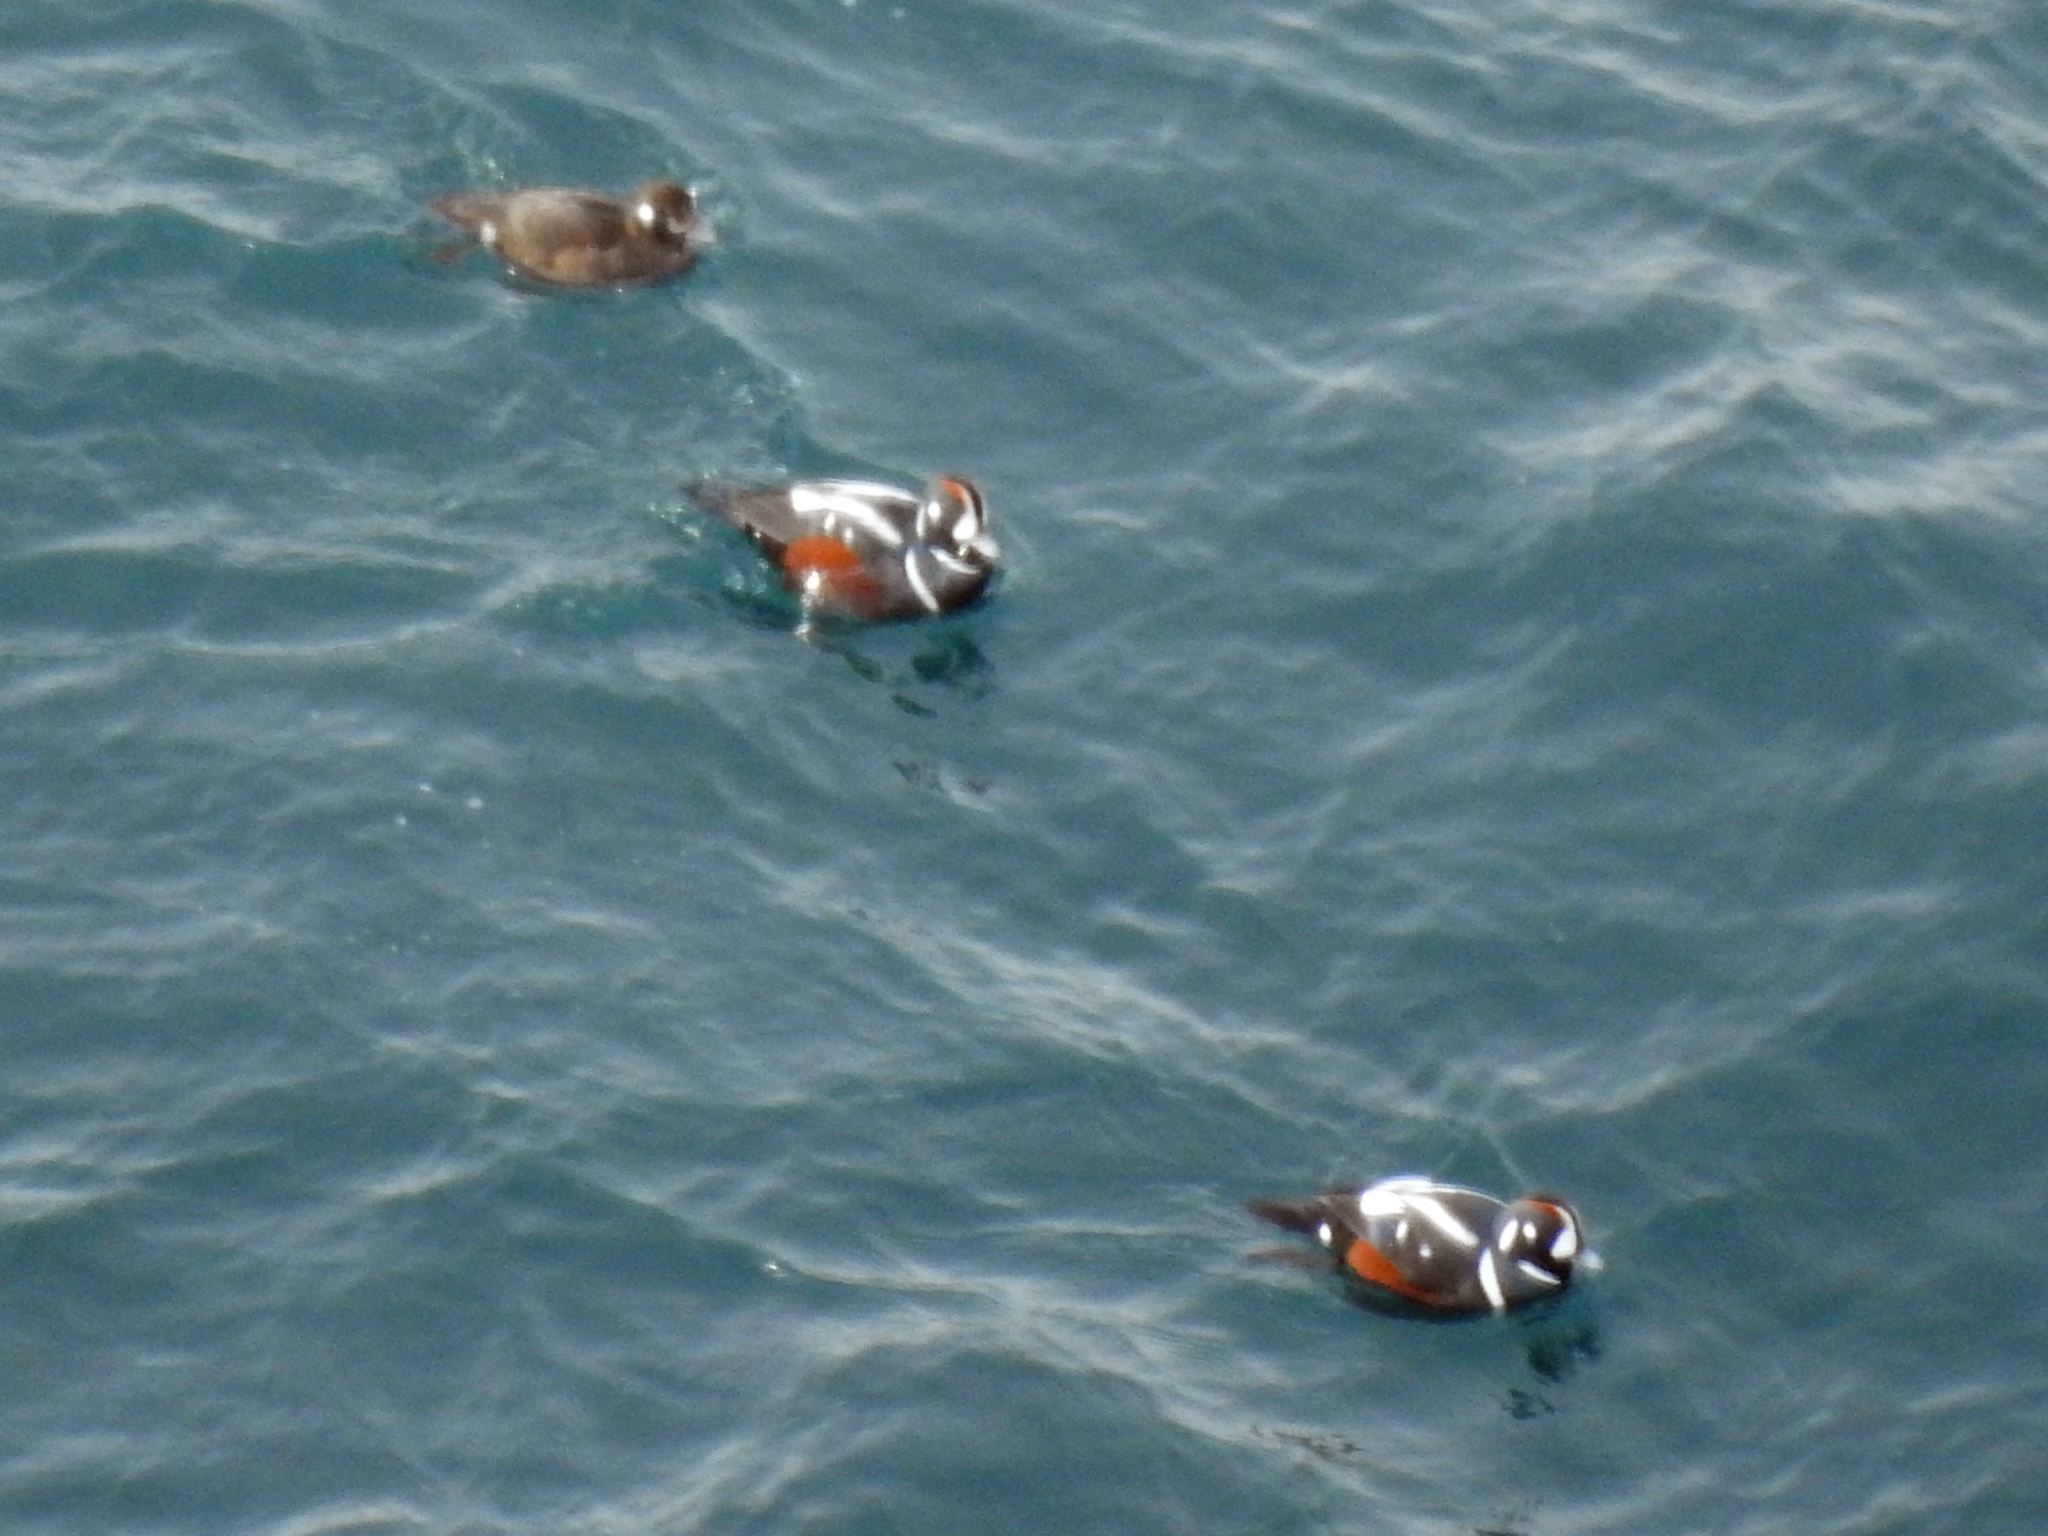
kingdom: Animalia
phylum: Chordata
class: Aves
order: Anseriformes
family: Anatidae
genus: Histrionicus
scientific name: Histrionicus histrionicus
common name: Harlequin duck
